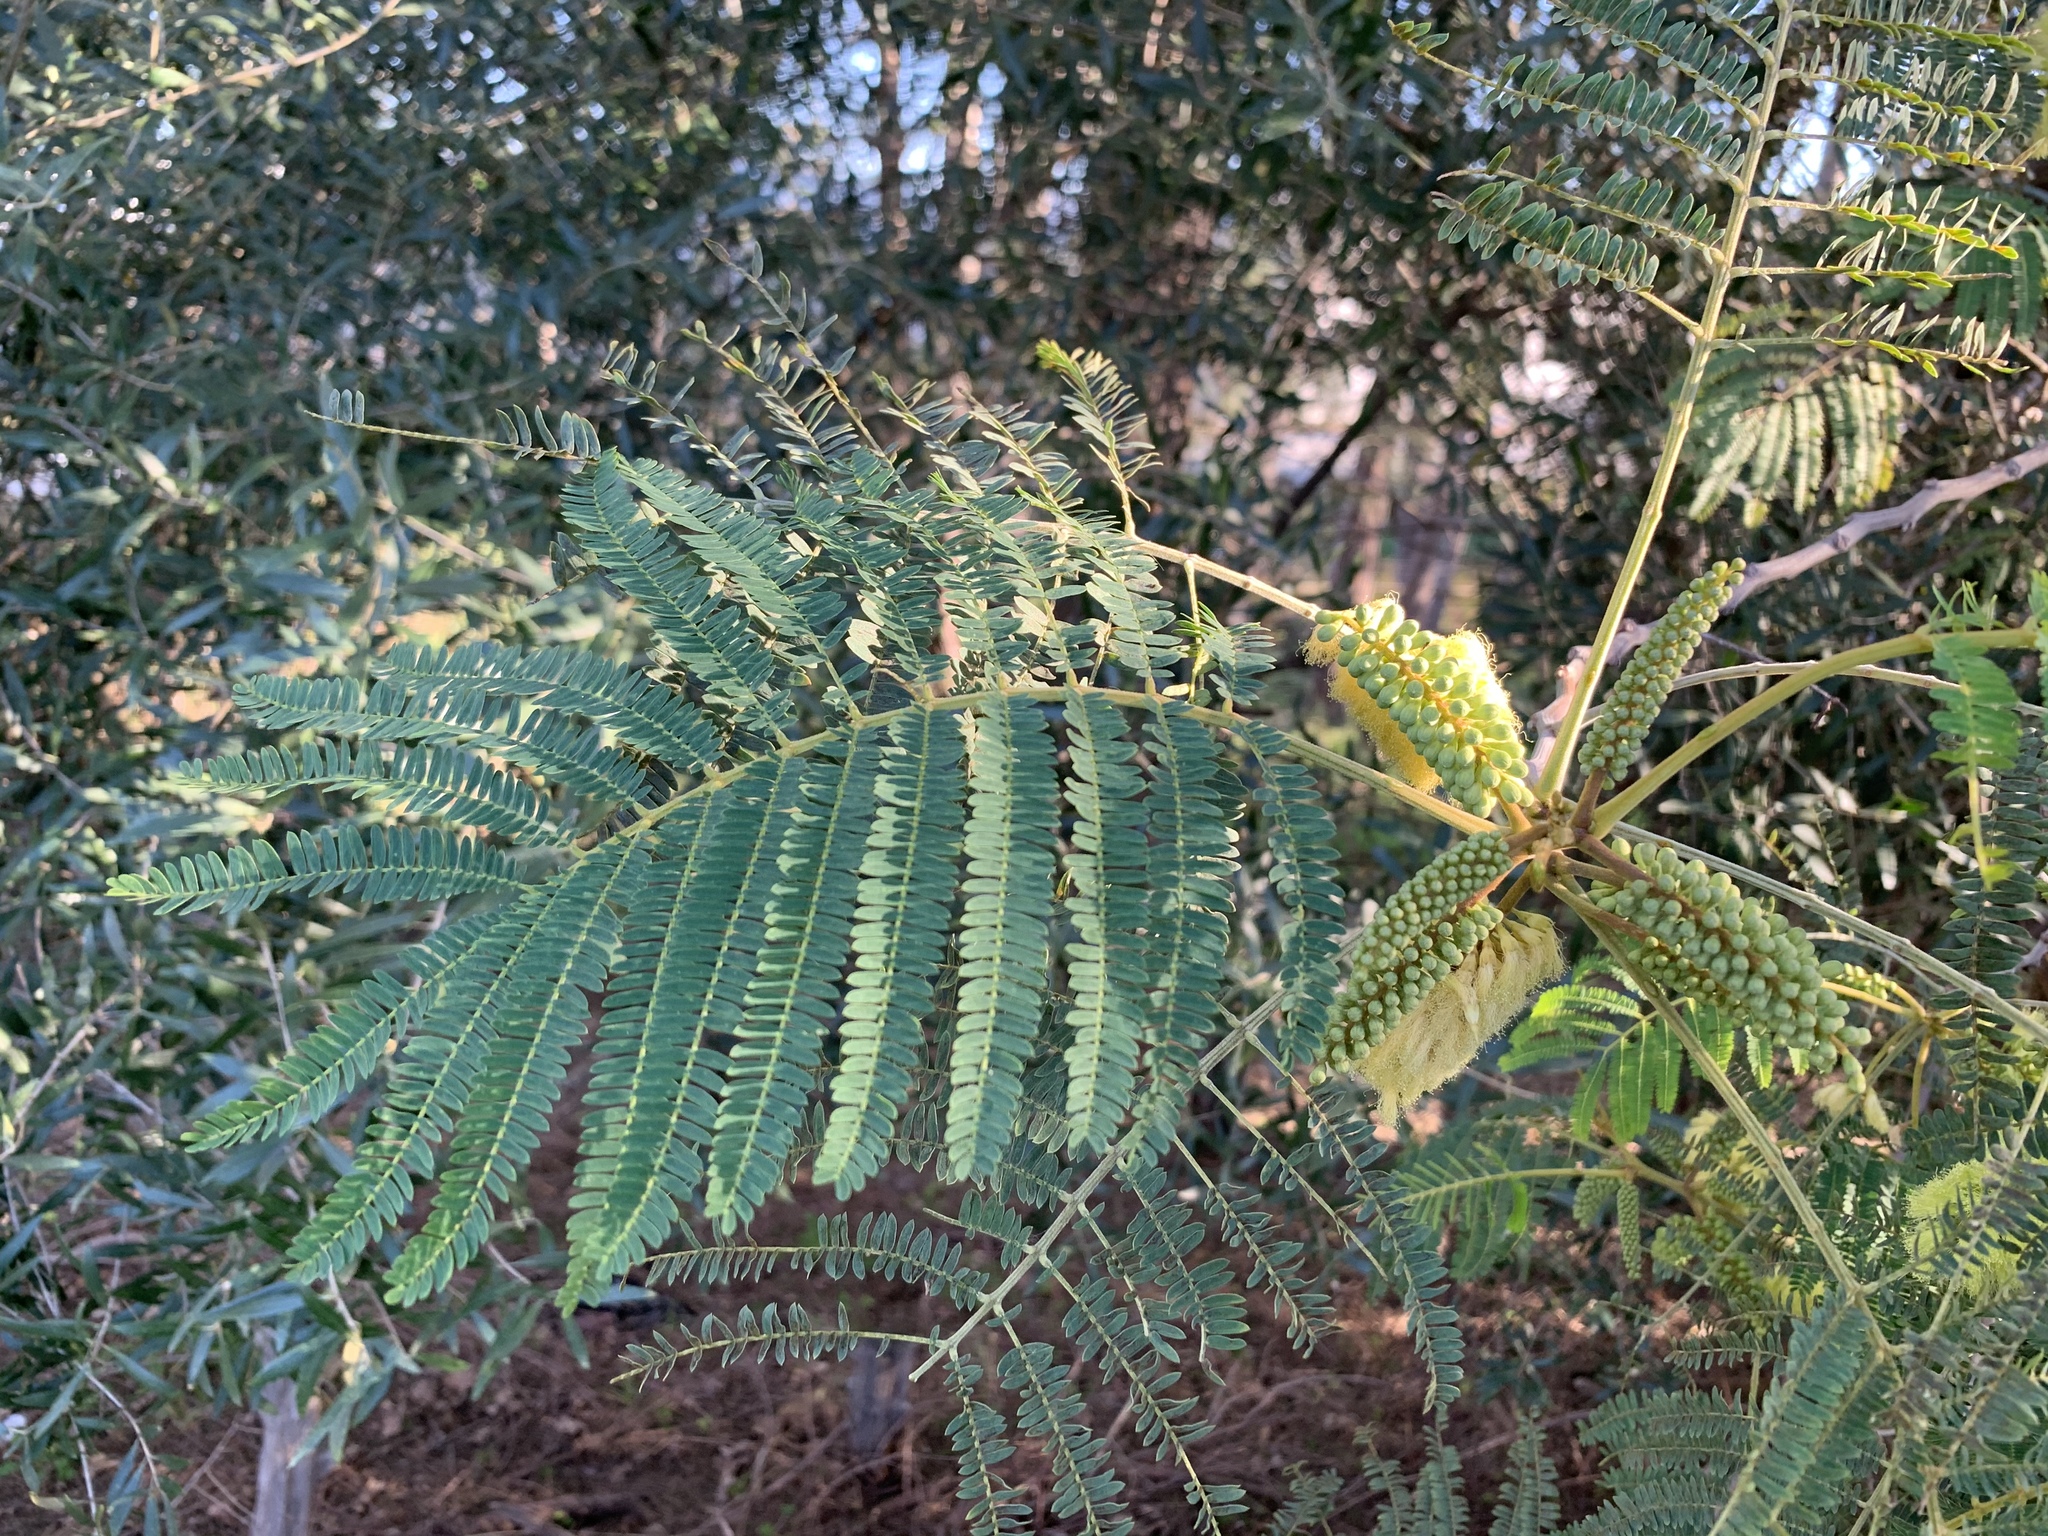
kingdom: Plantae
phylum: Tracheophyta
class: Magnoliopsida
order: Fabales
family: Fabaceae
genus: Paraserianthes
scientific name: Paraserianthes lophantha
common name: Plume albizia
